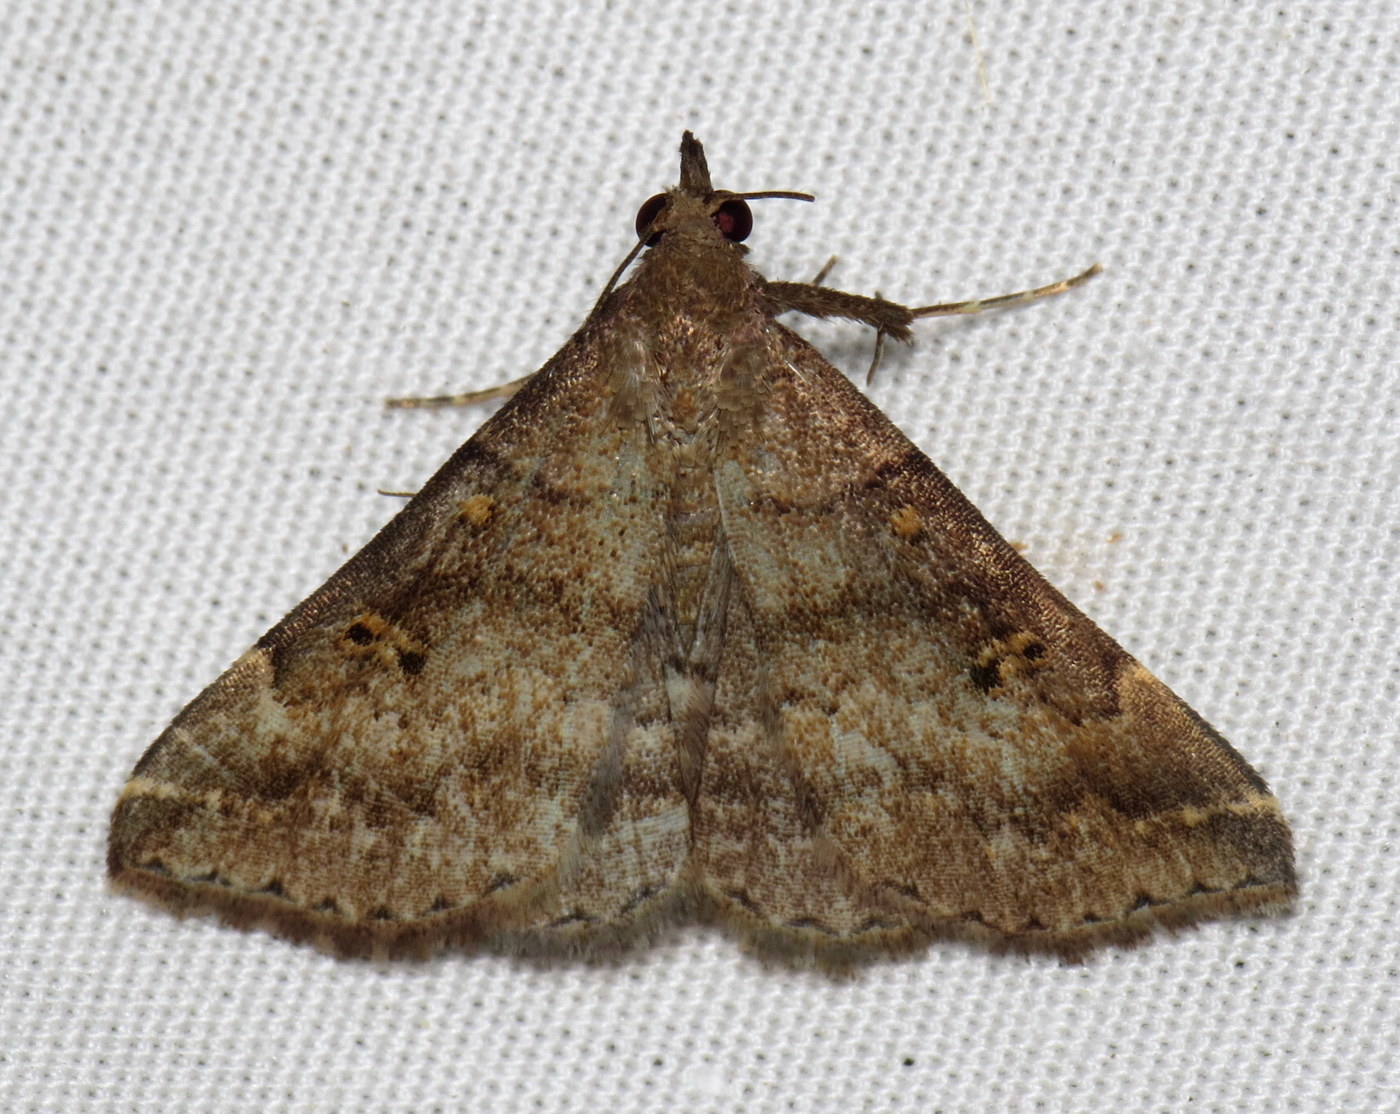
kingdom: Animalia
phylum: Arthropoda
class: Insecta
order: Lepidoptera
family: Erebidae
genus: Renia
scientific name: Renia factiosalis
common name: Sociable renia moth
